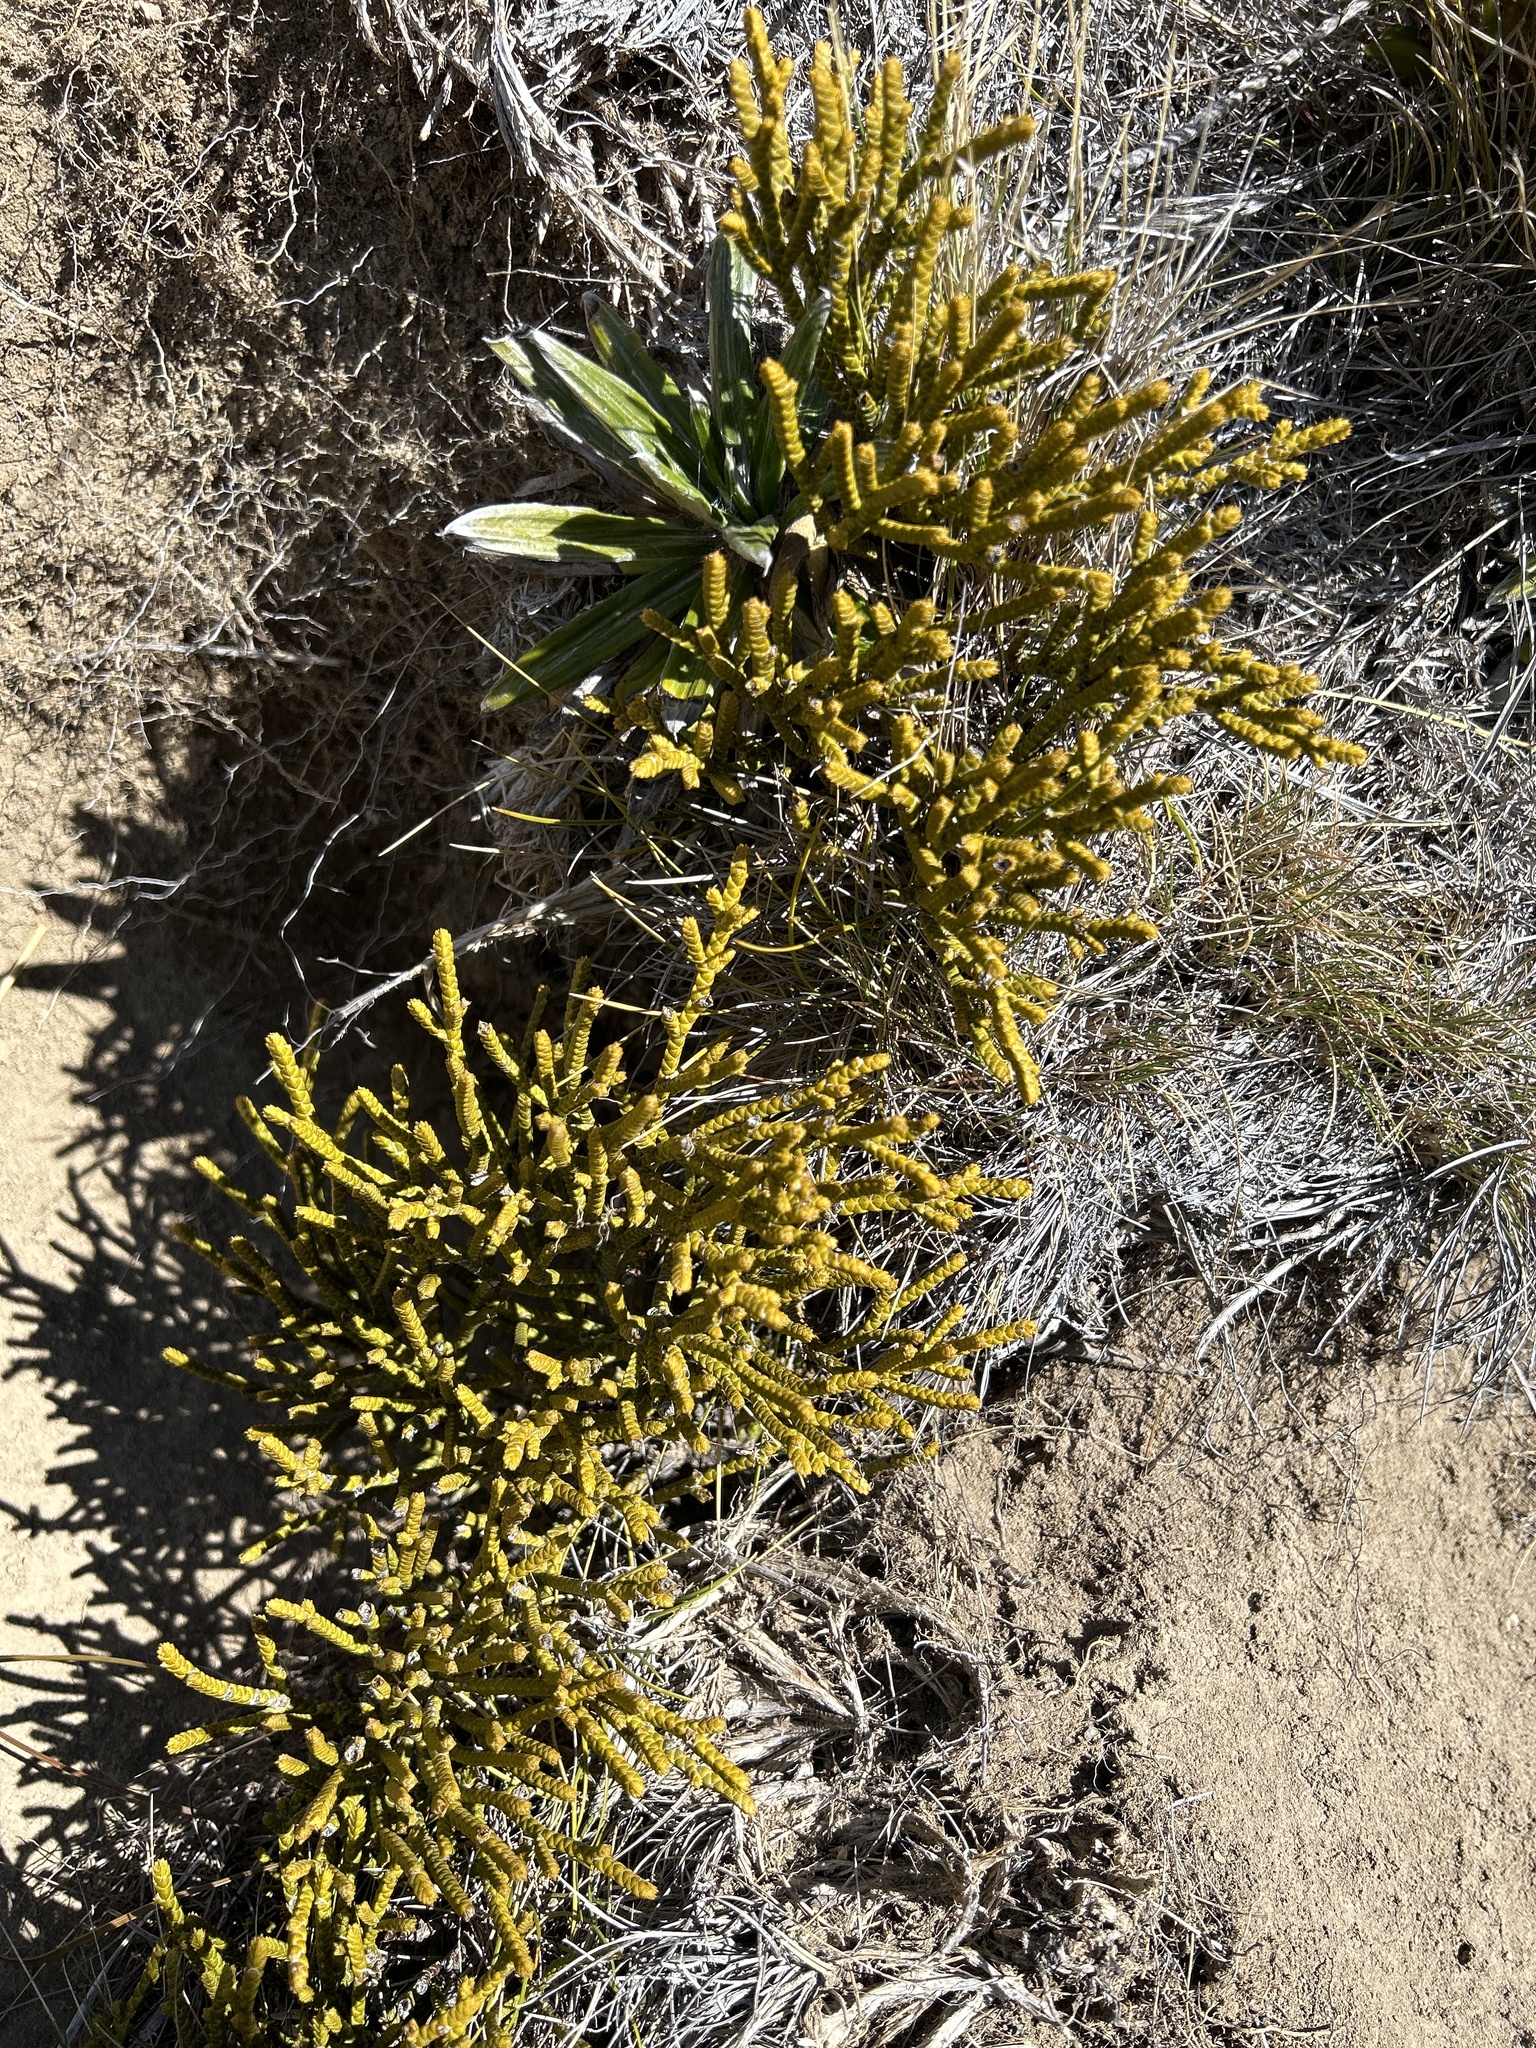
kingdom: Plantae
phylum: Tracheophyta
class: Magnoliopsida
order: Lamiales
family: Plantaginaceae
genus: Veronica
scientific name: Veronica lycopodioides
